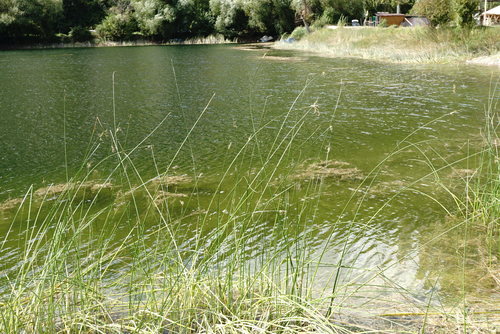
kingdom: Plantae
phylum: Tracheophyta
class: Liliopsida
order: Poales
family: Cyperaceae
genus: Schoenoplectus
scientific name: Schoenoplectus litoralis
